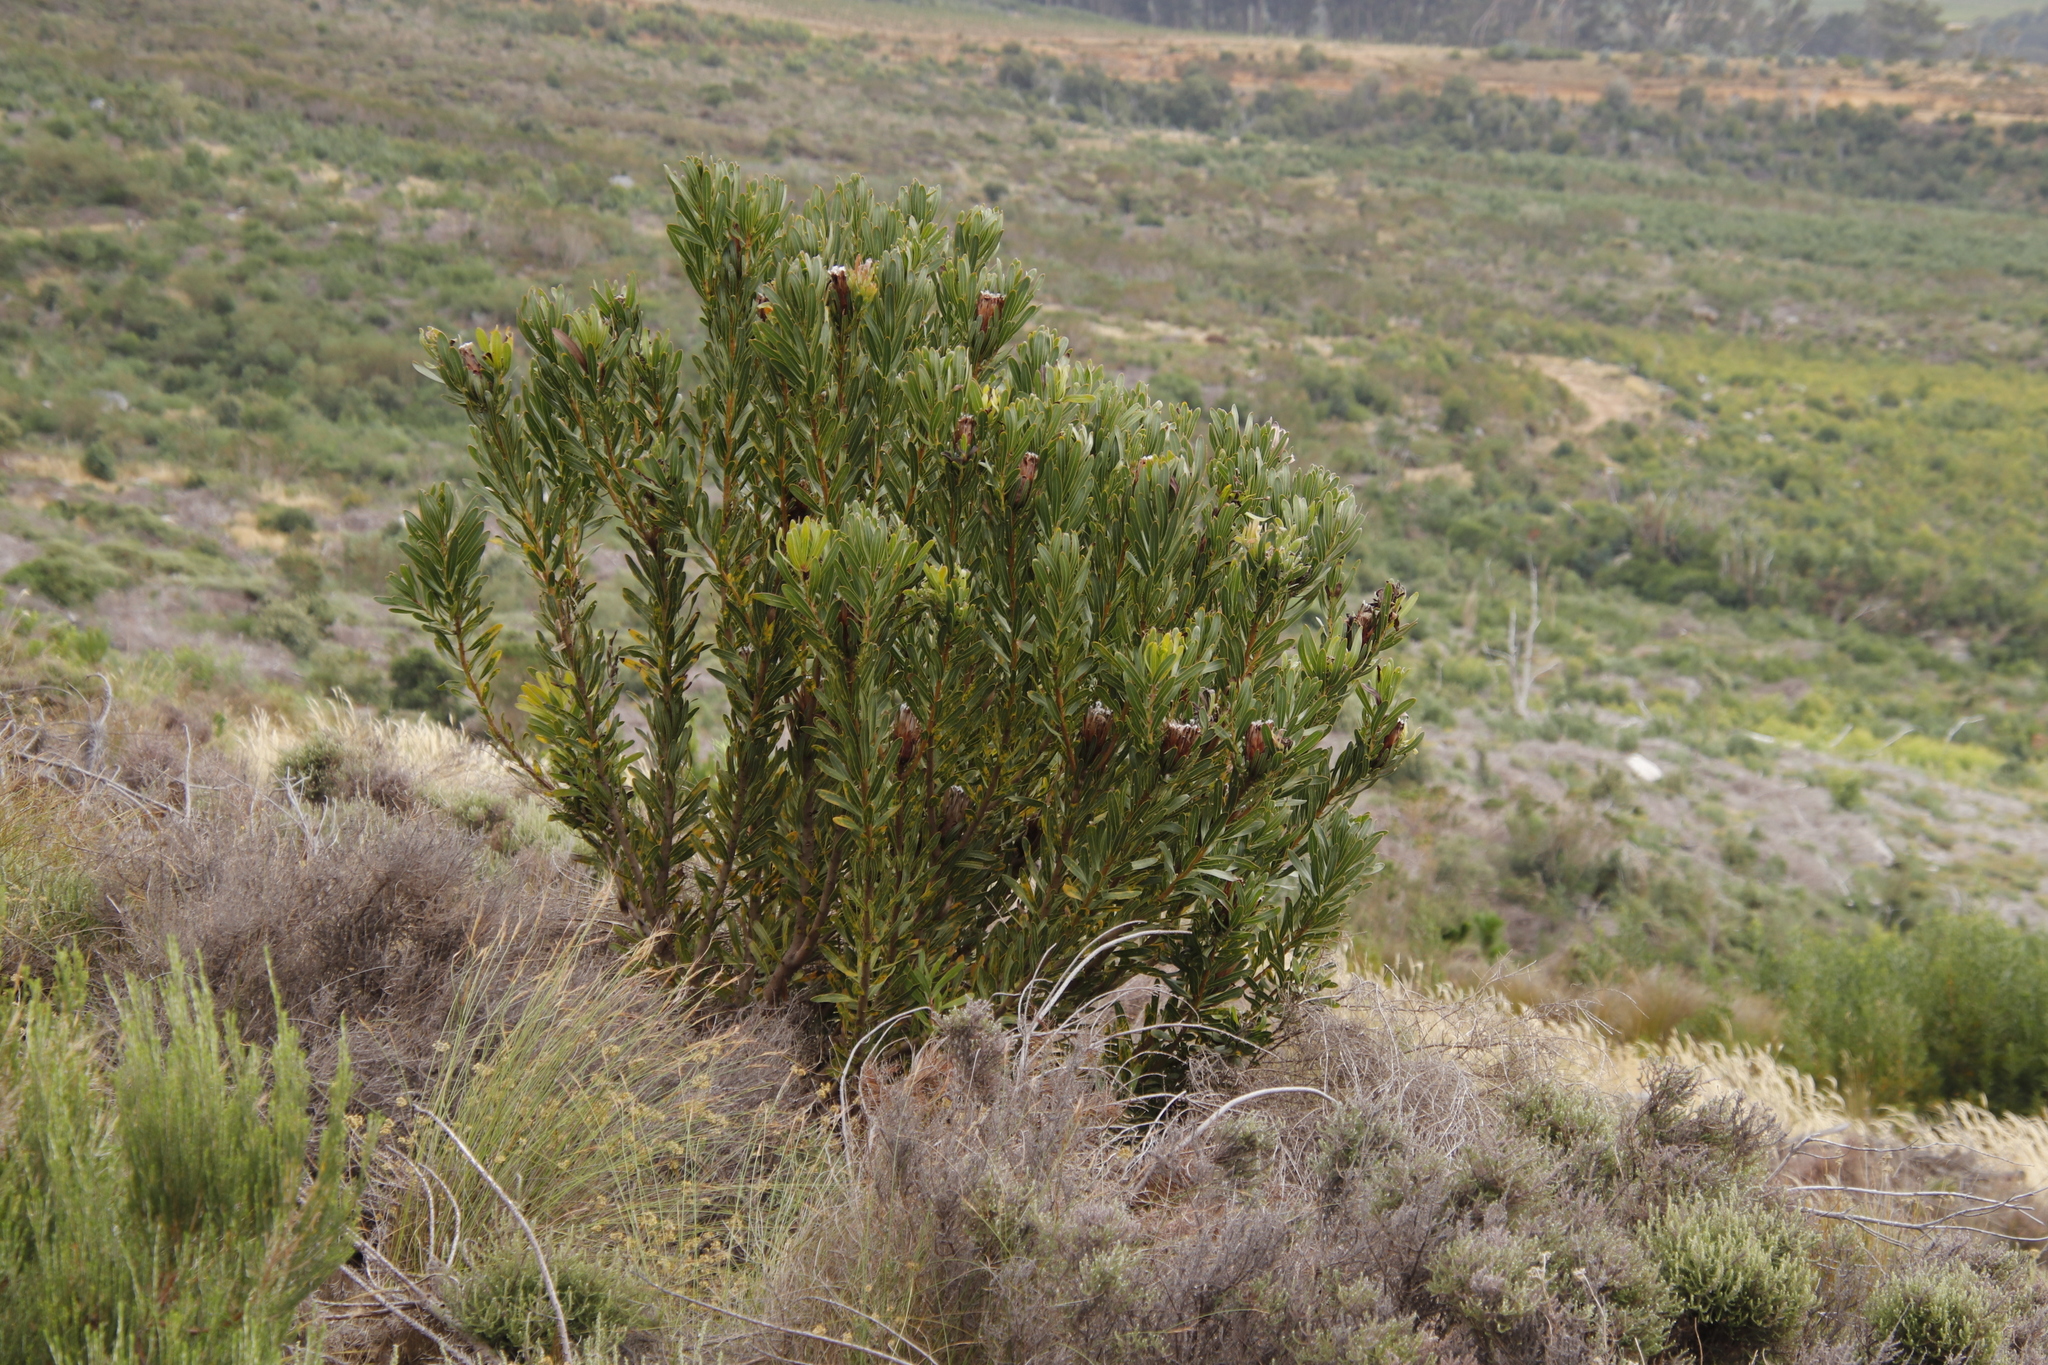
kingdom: Plantae
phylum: Tracheophyta
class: Magnoliopsida
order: Proteales
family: Proteaceae
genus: Protea
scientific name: Protea lepidocarpodendron
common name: Black-bearded protea
